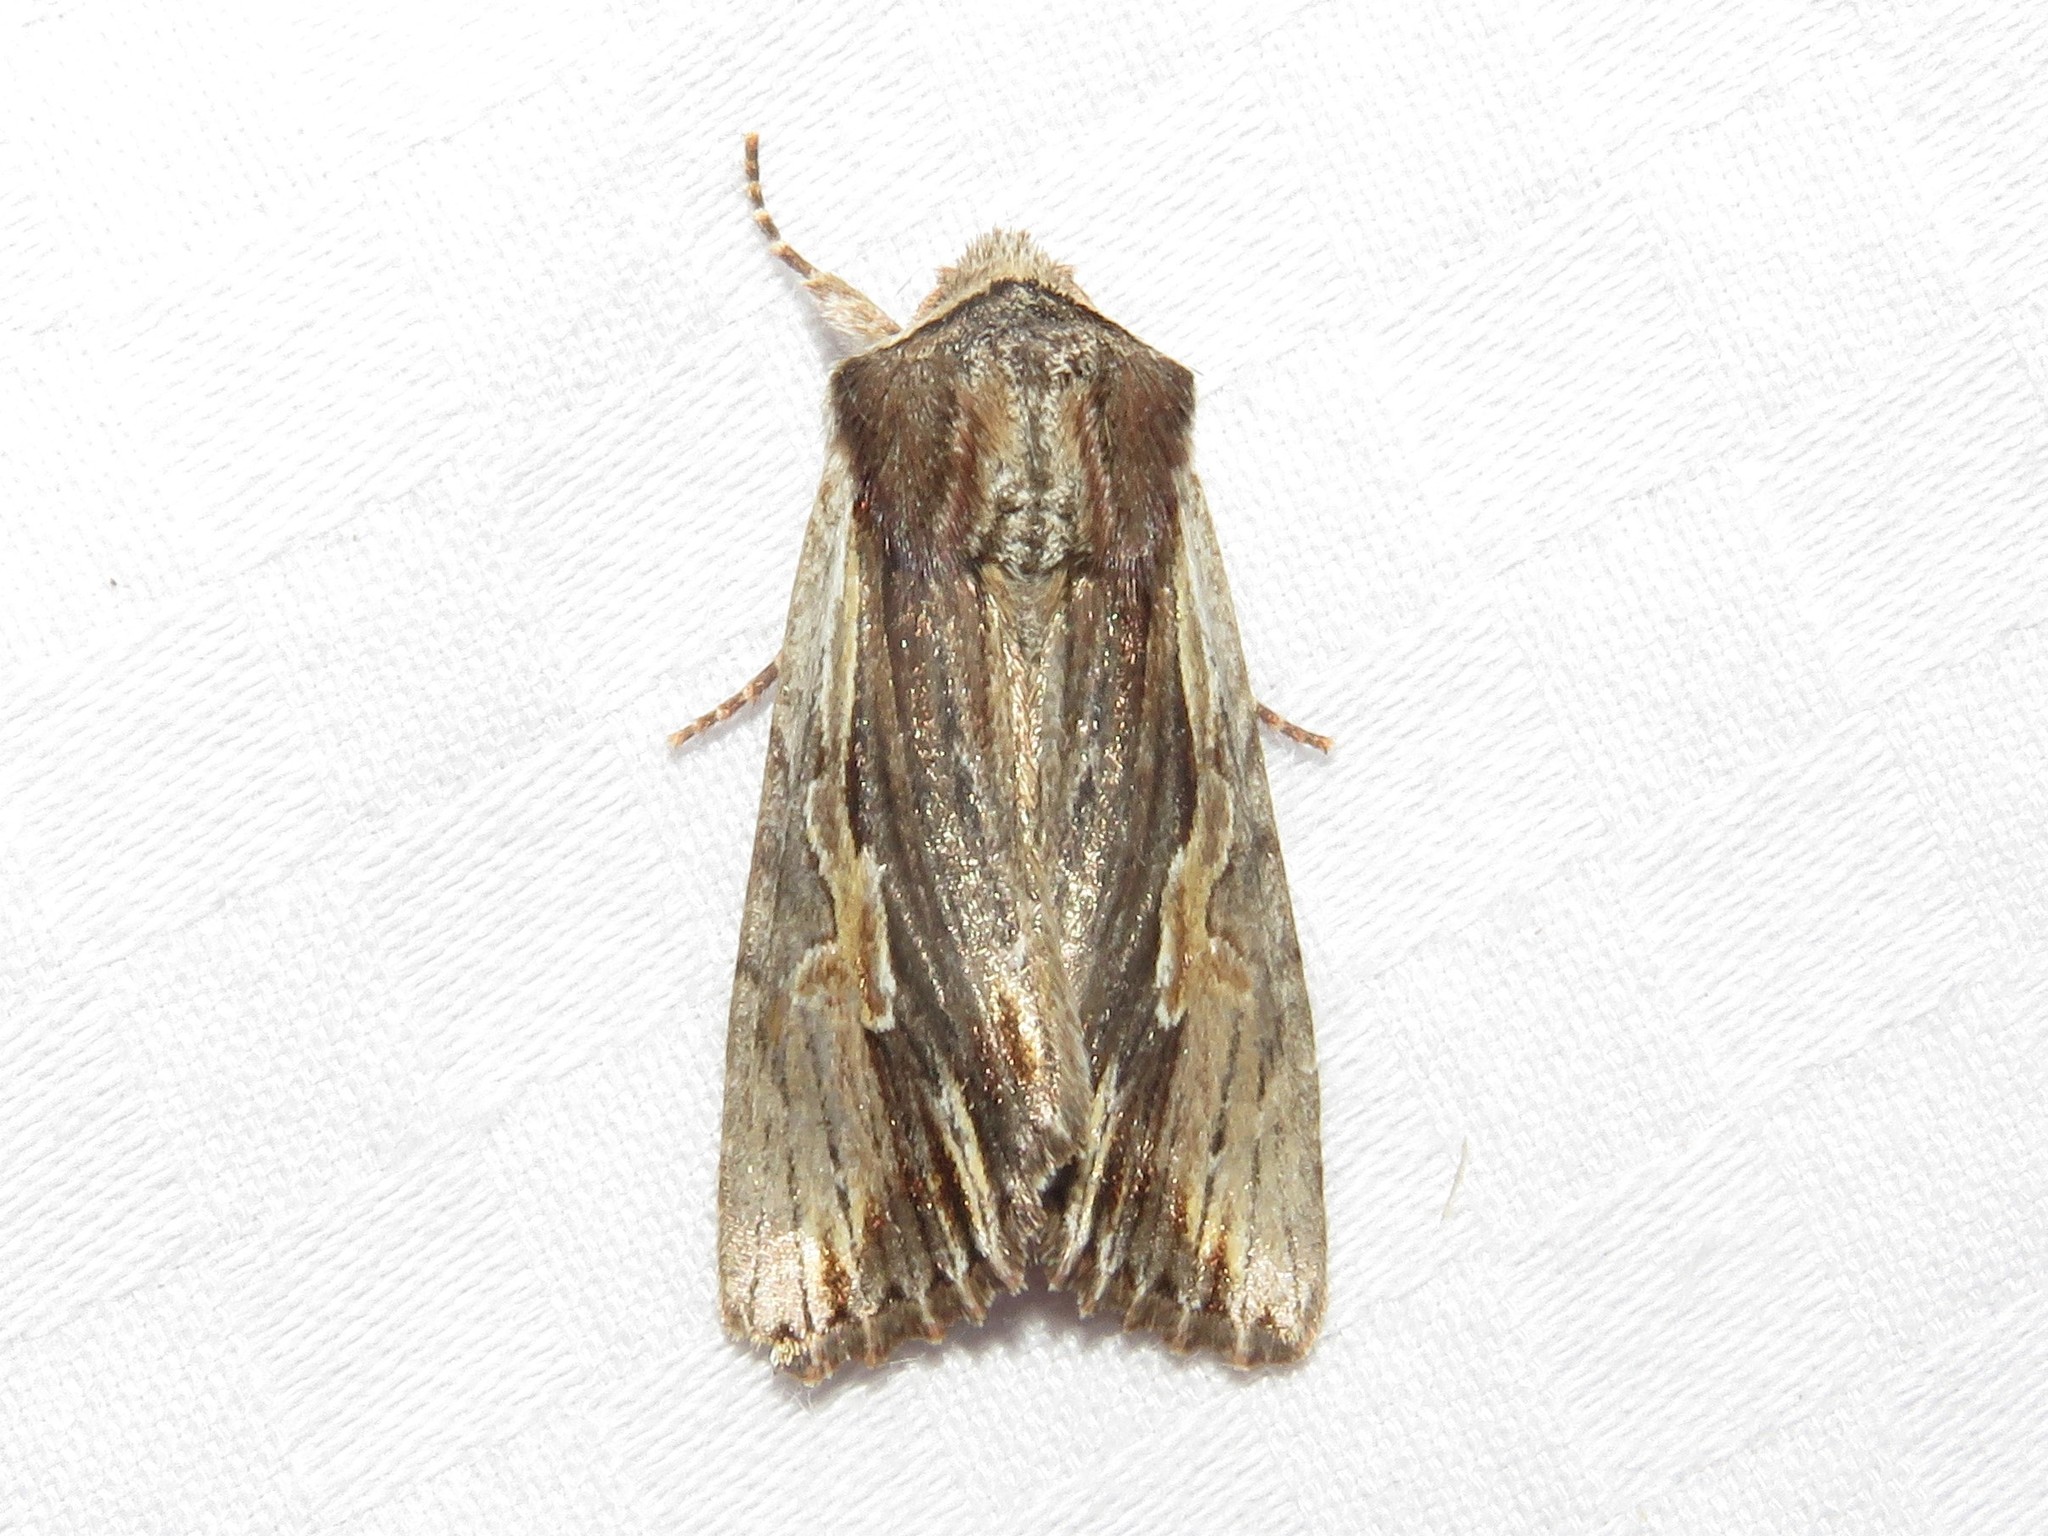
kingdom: Animalia
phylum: Arthropoda
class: Insecta
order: Lepidoptera
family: Noctuidae
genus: Achatia
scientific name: Achatia evicta
